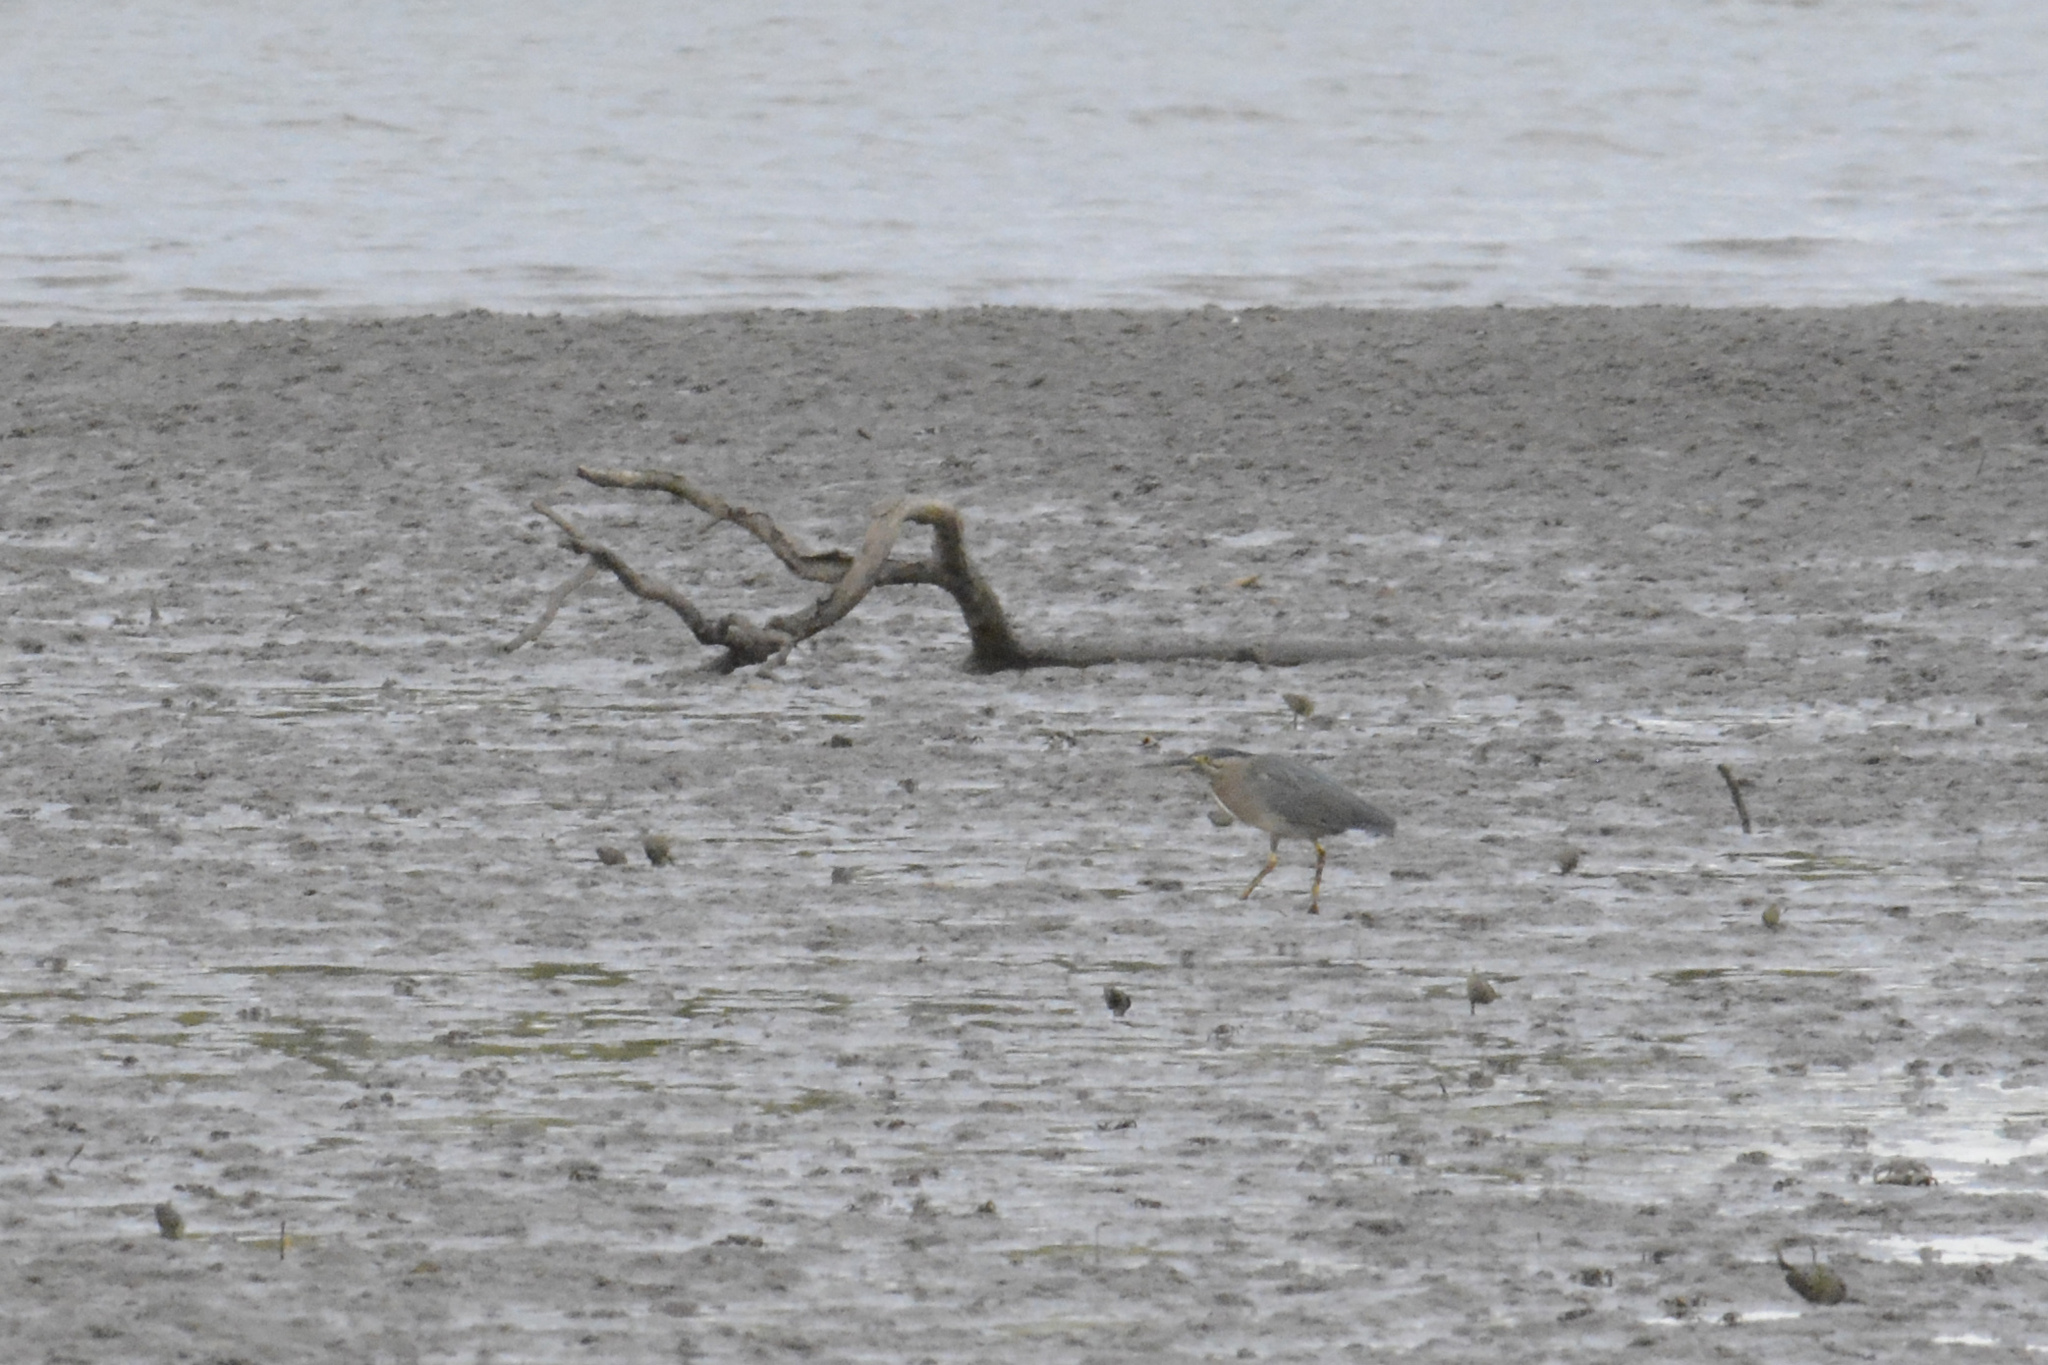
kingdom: Animalia
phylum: Chordata
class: Aves
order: Pelecaniformes
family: Ardeidae
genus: Butorides
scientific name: Butorides striata
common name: Striated heron
